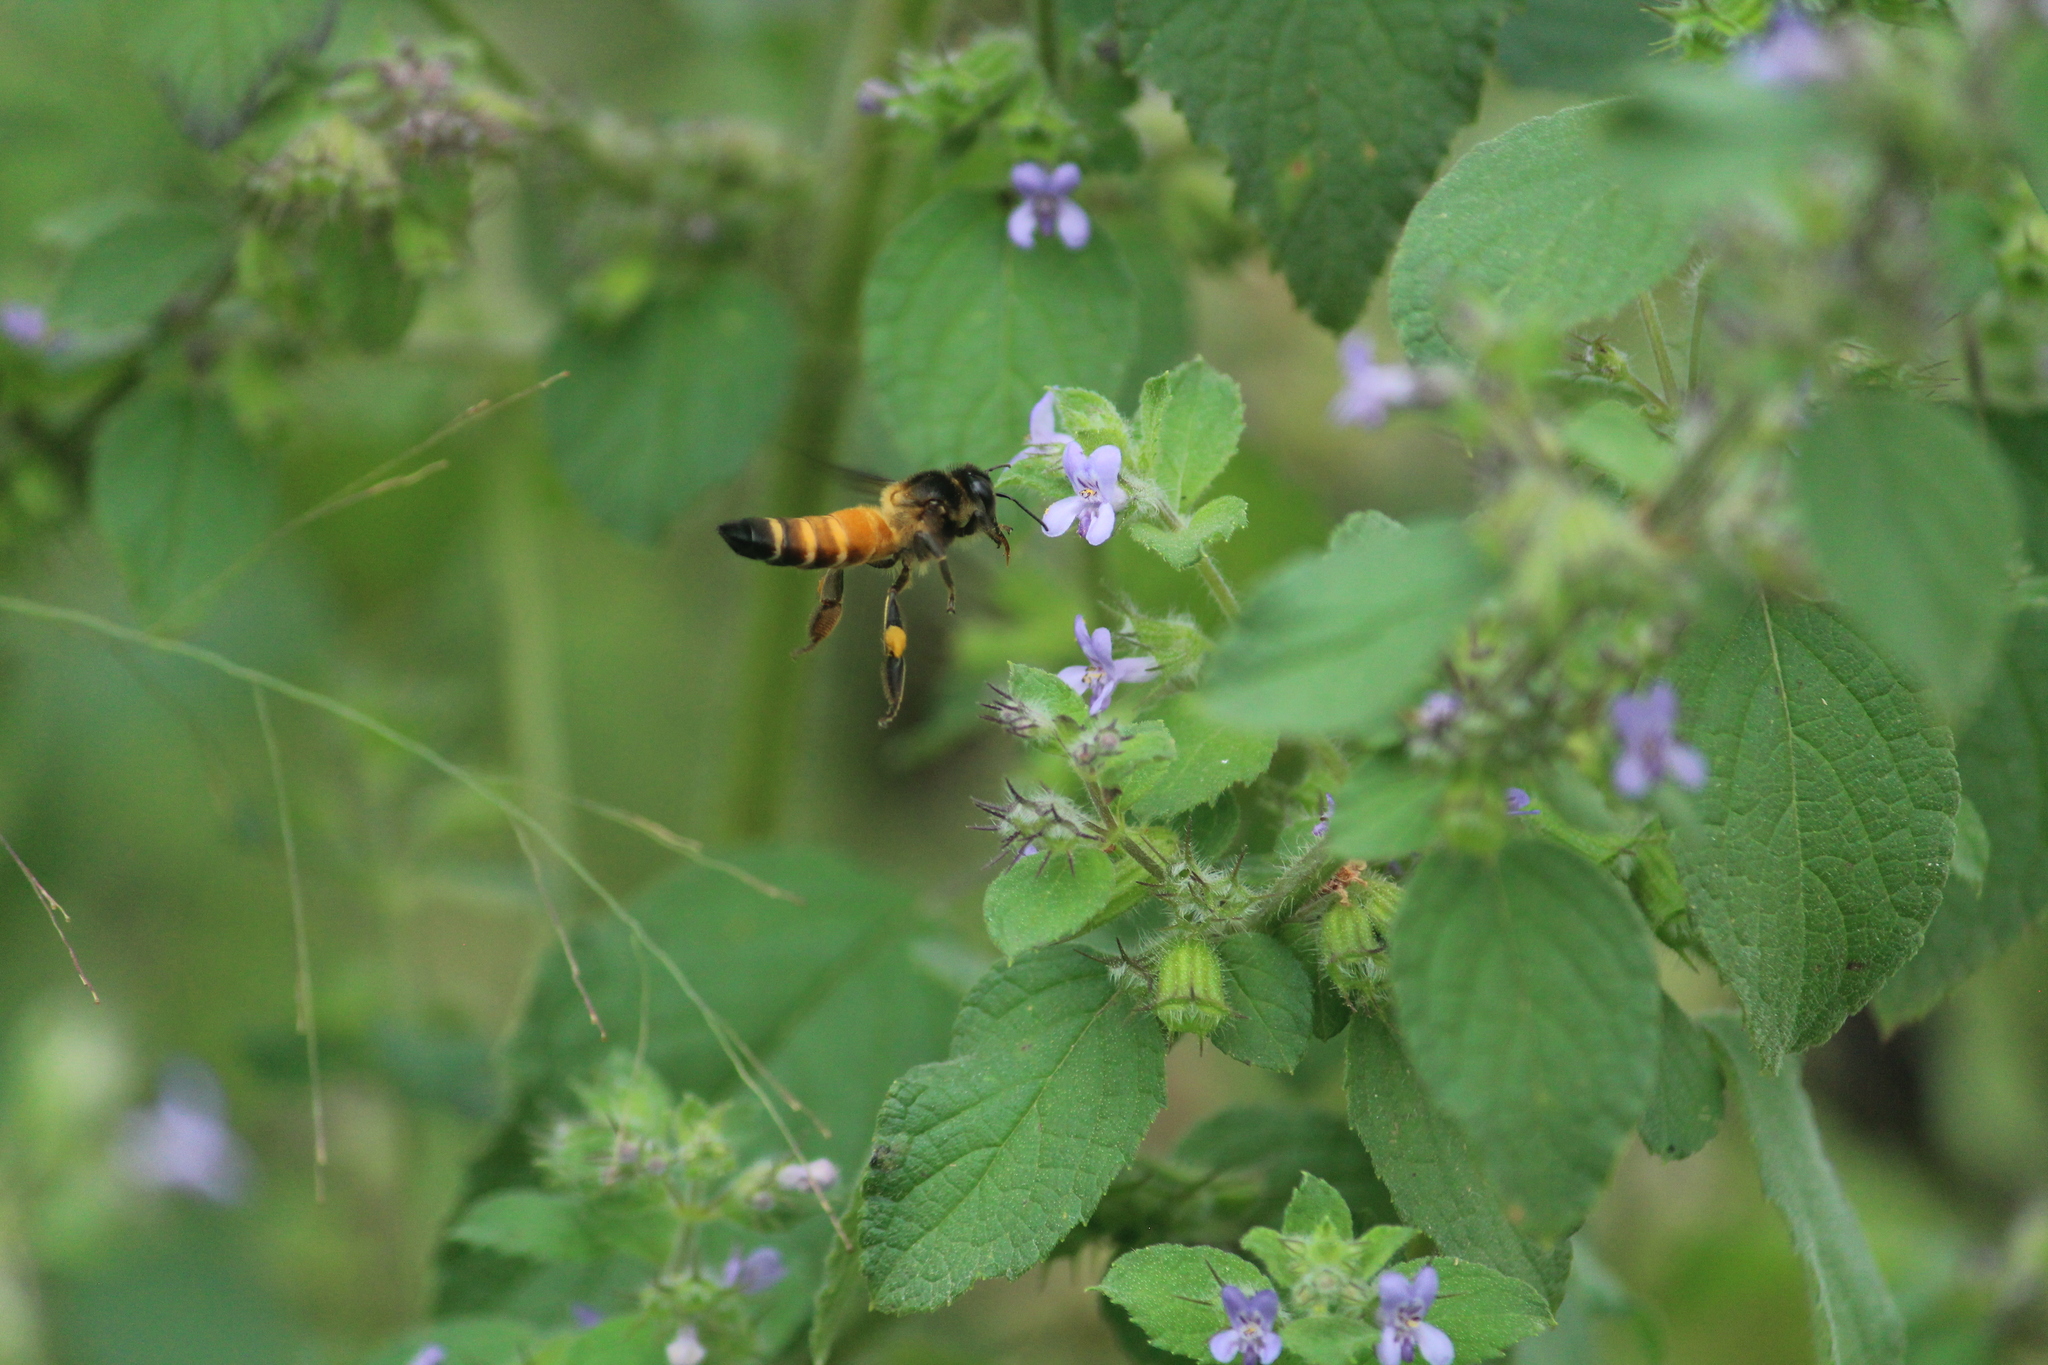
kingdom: Animalia
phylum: Arthropoda
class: Insecta
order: Hymenoptera
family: Apidae
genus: Apis
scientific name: Apis dorsata
